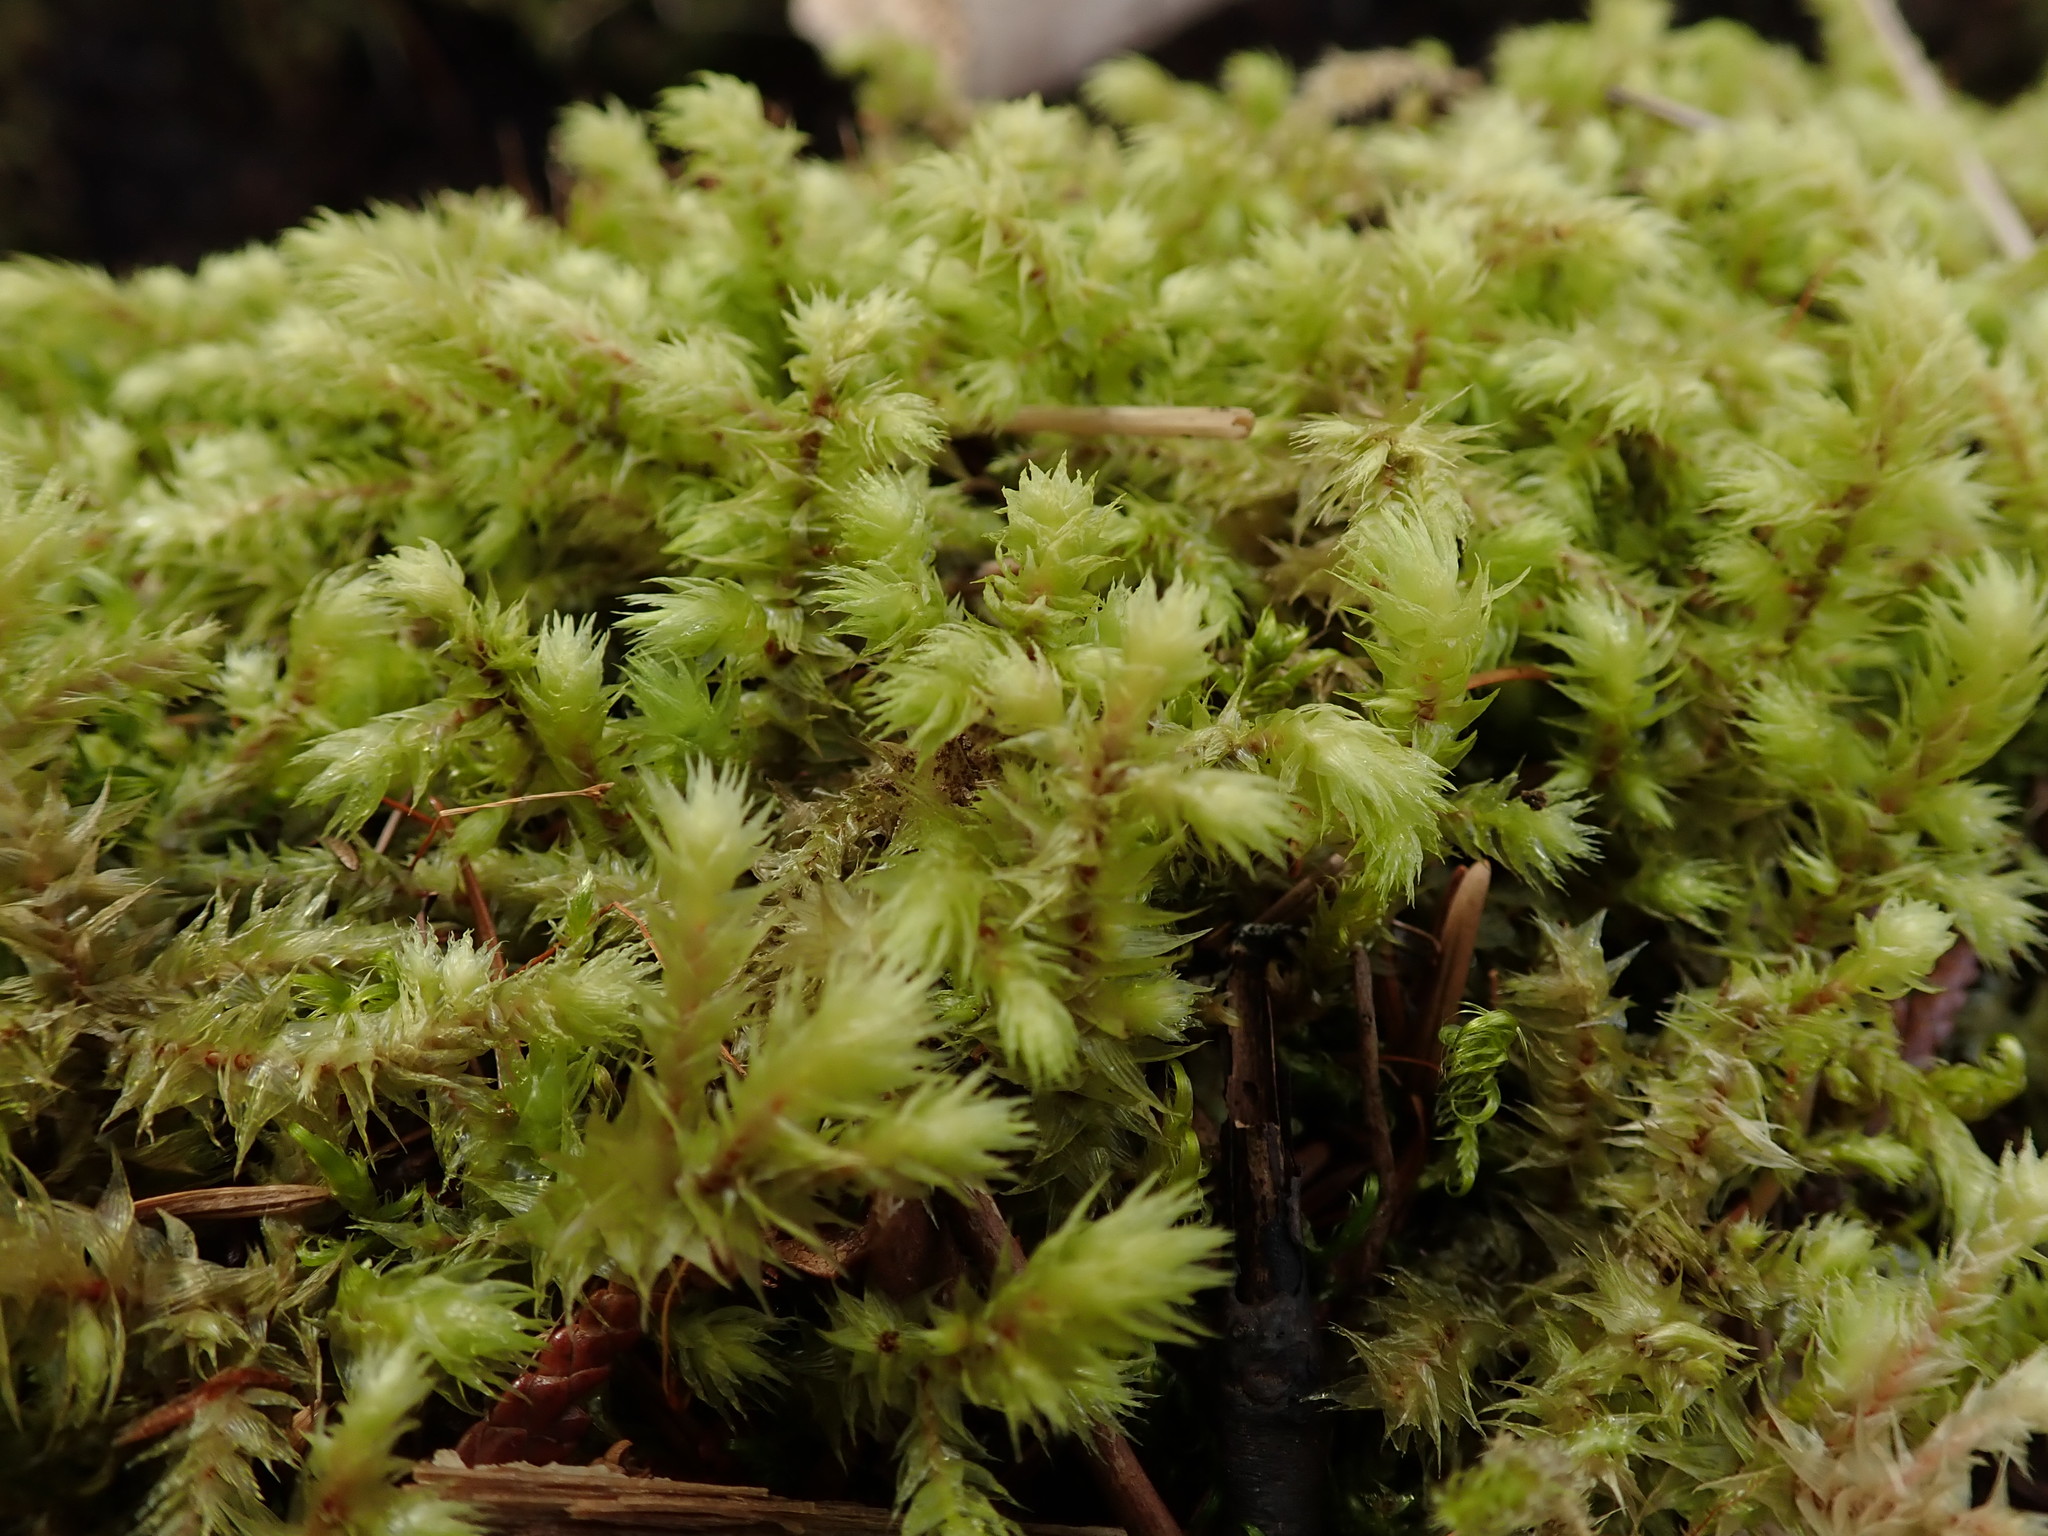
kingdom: Plantae
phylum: Bryophyta
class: Bryopsida
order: Hypnales
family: Hylocomiaceae
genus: Hylocomiadelphus
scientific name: Hylocomiadelphus triquetrus
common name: Rough goose neck moss
